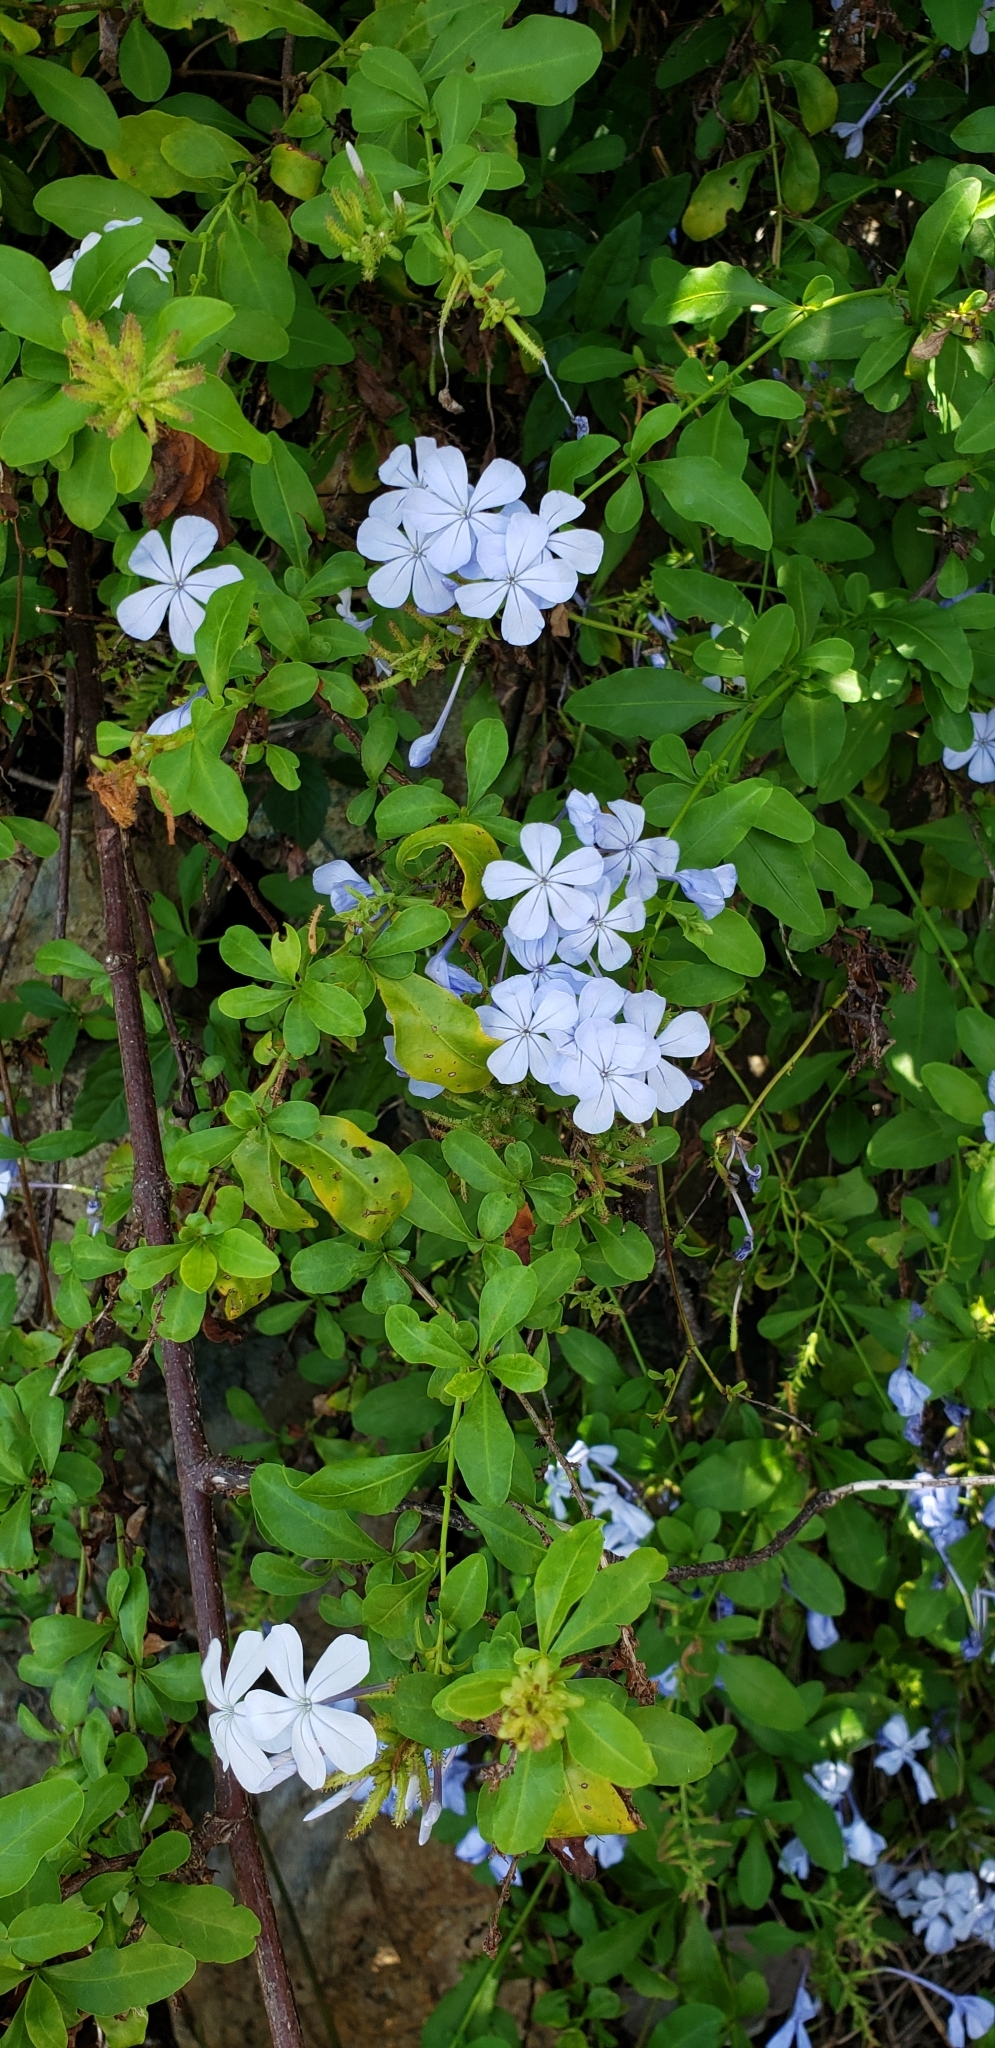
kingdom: Plantae
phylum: Tracheophyta
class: Magnoliopsida
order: Caryophyllales
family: Plumbaginaceae
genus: Plumbago
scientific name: Plumbago auriculata
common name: Cape leadwort
